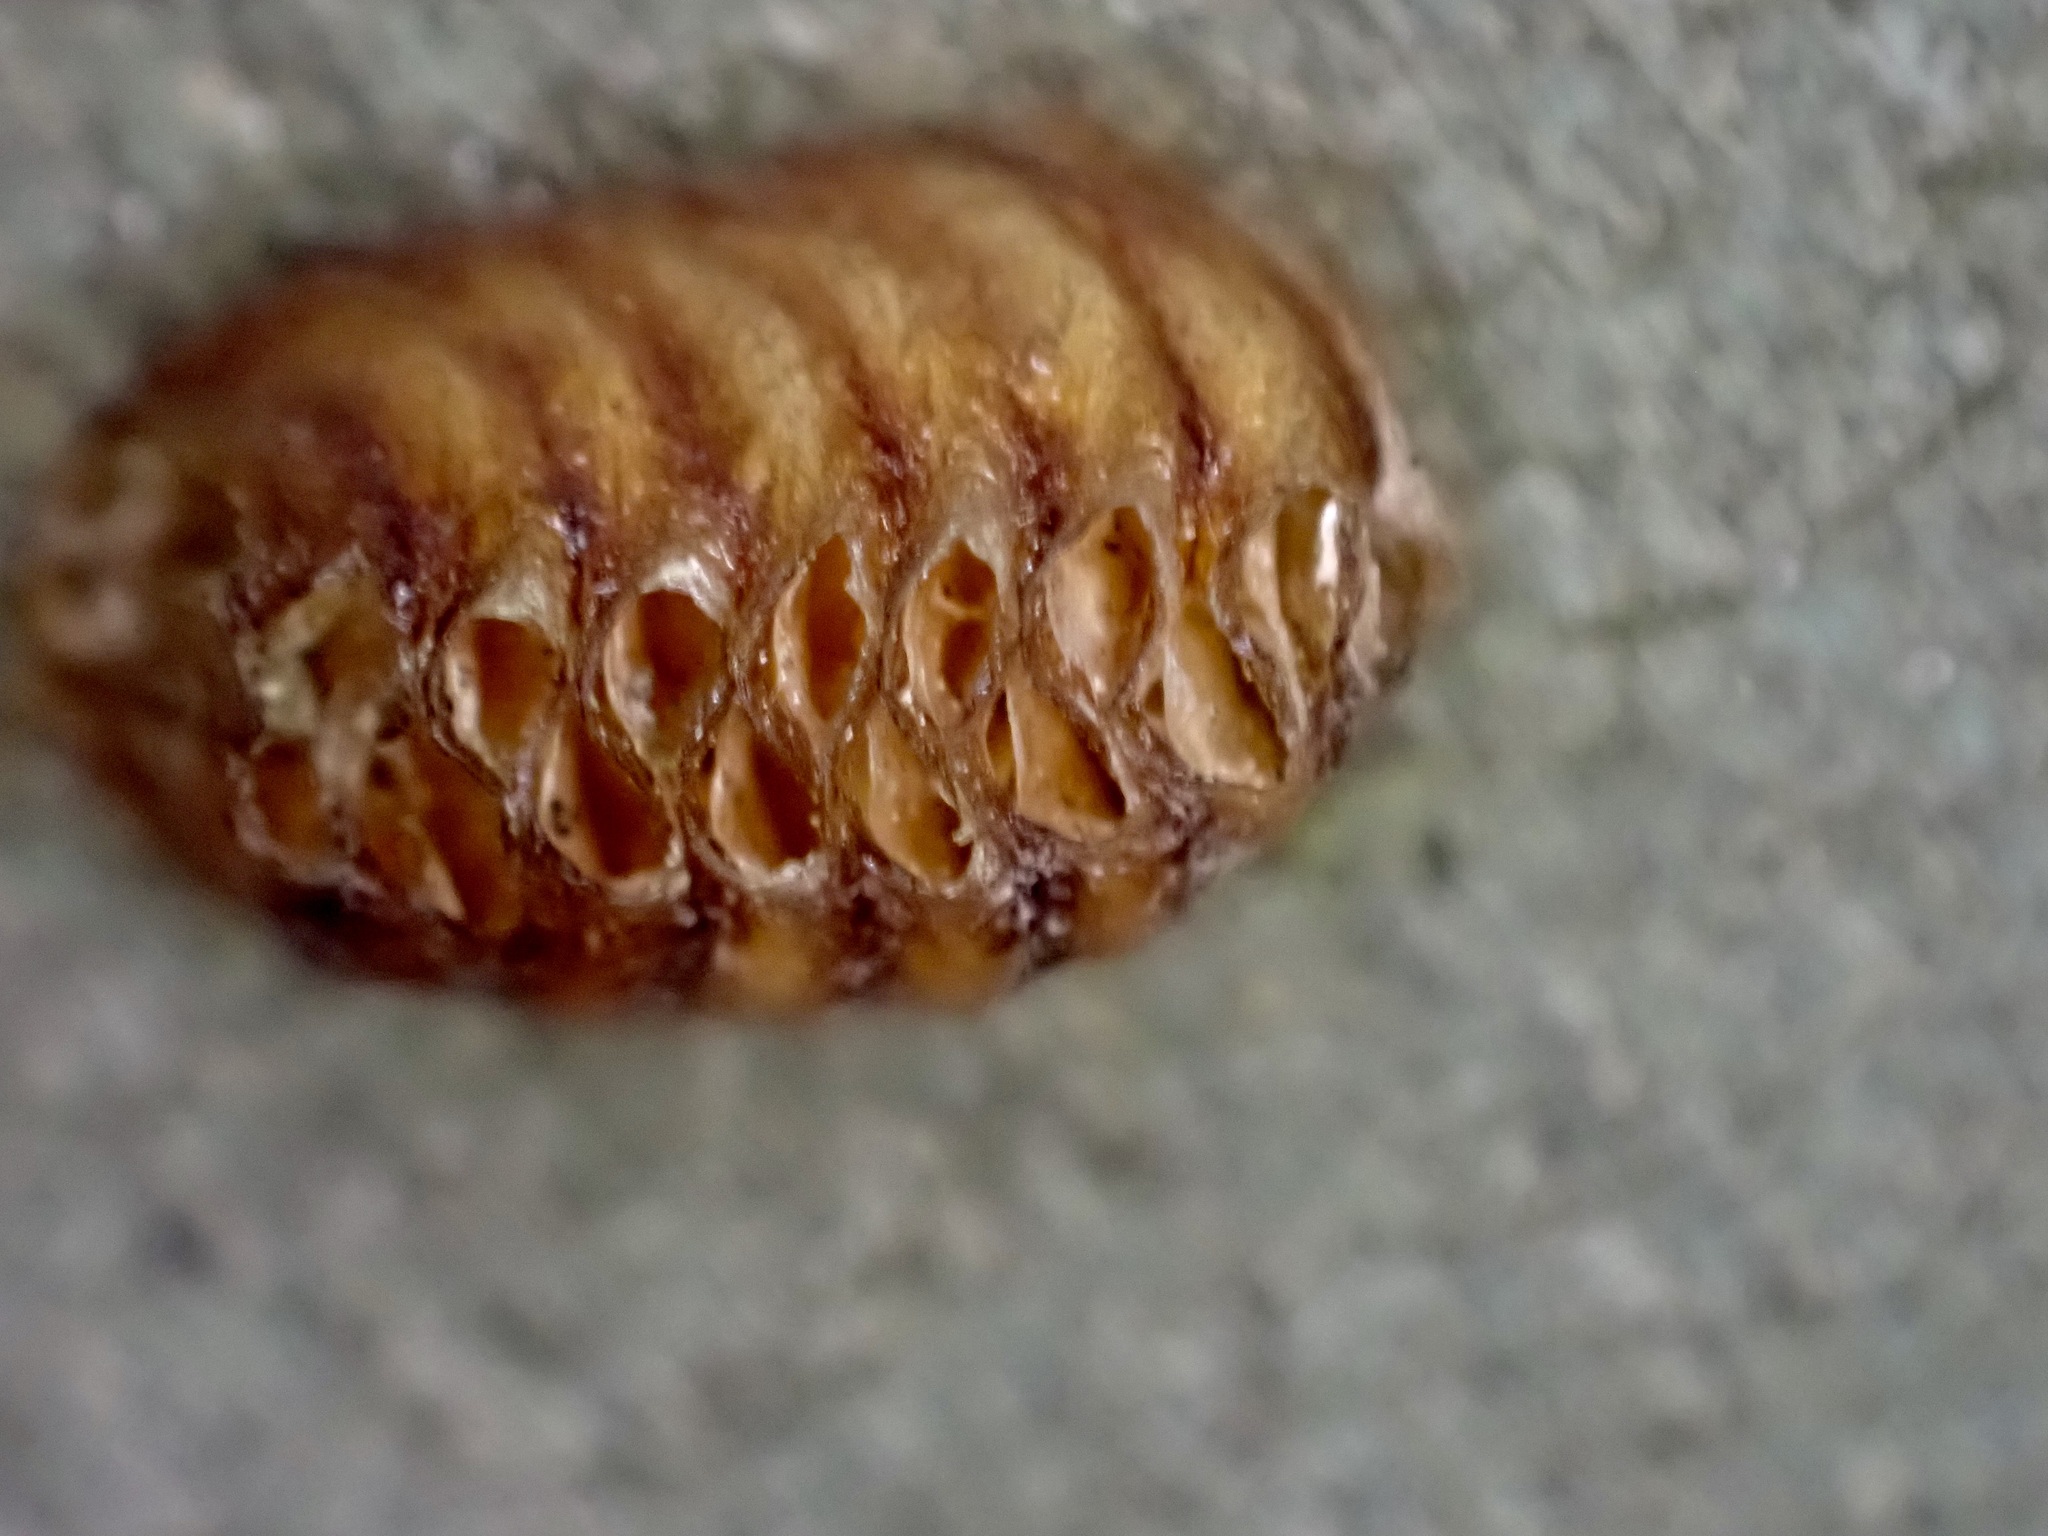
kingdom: Animalia
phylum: Arthropoda
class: Insecta
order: Mantodea
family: Mantidae
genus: Orthodera
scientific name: Orthodera novaezealandiae
